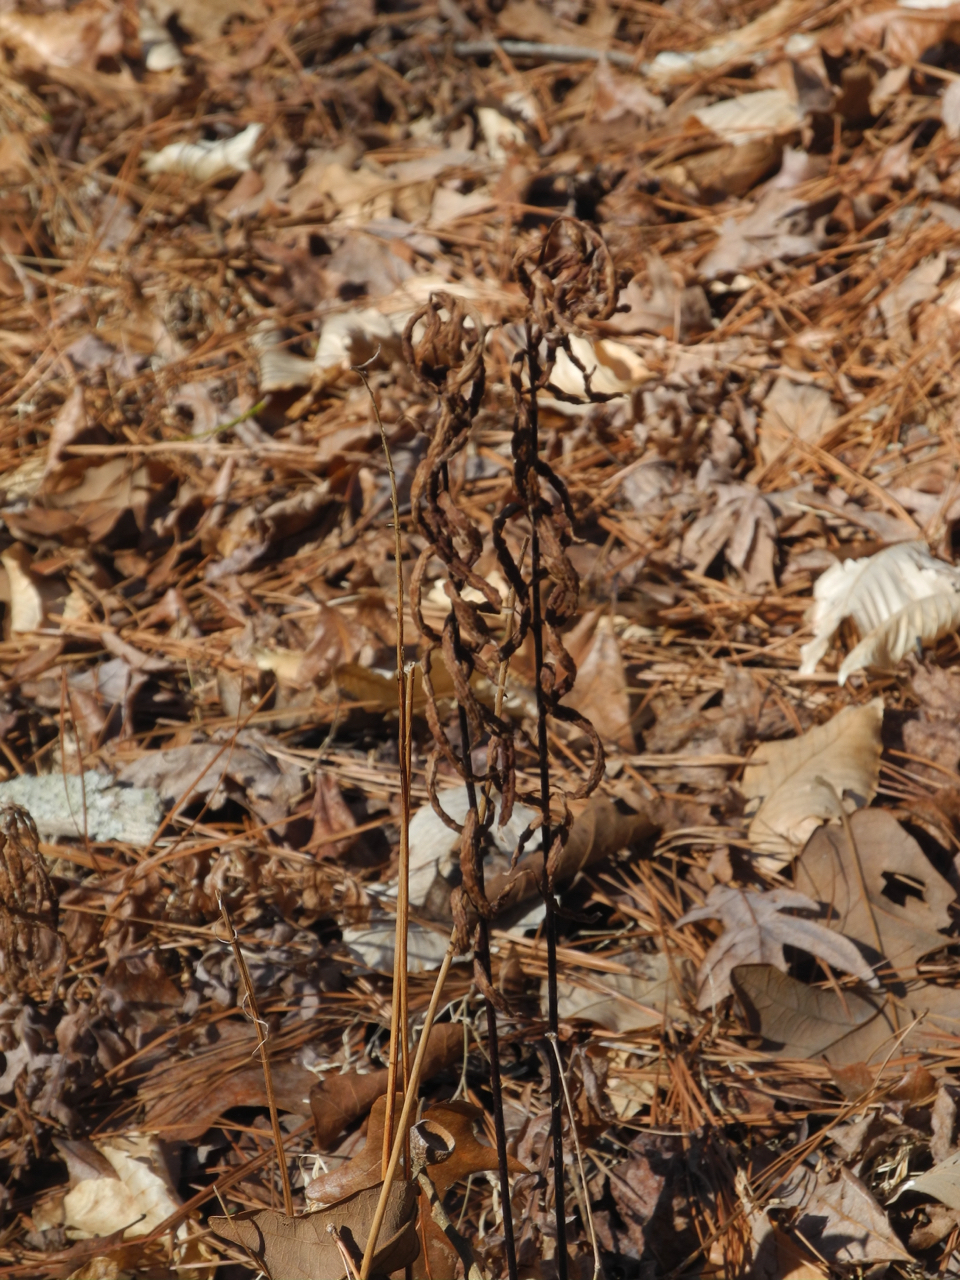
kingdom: Plantae
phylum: Tracheophyta
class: Polypodiopsida
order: Polypodiales
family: Blechnaceae
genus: Lorinseria
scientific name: Lorinseria areolata
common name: Dwarf chain fern
